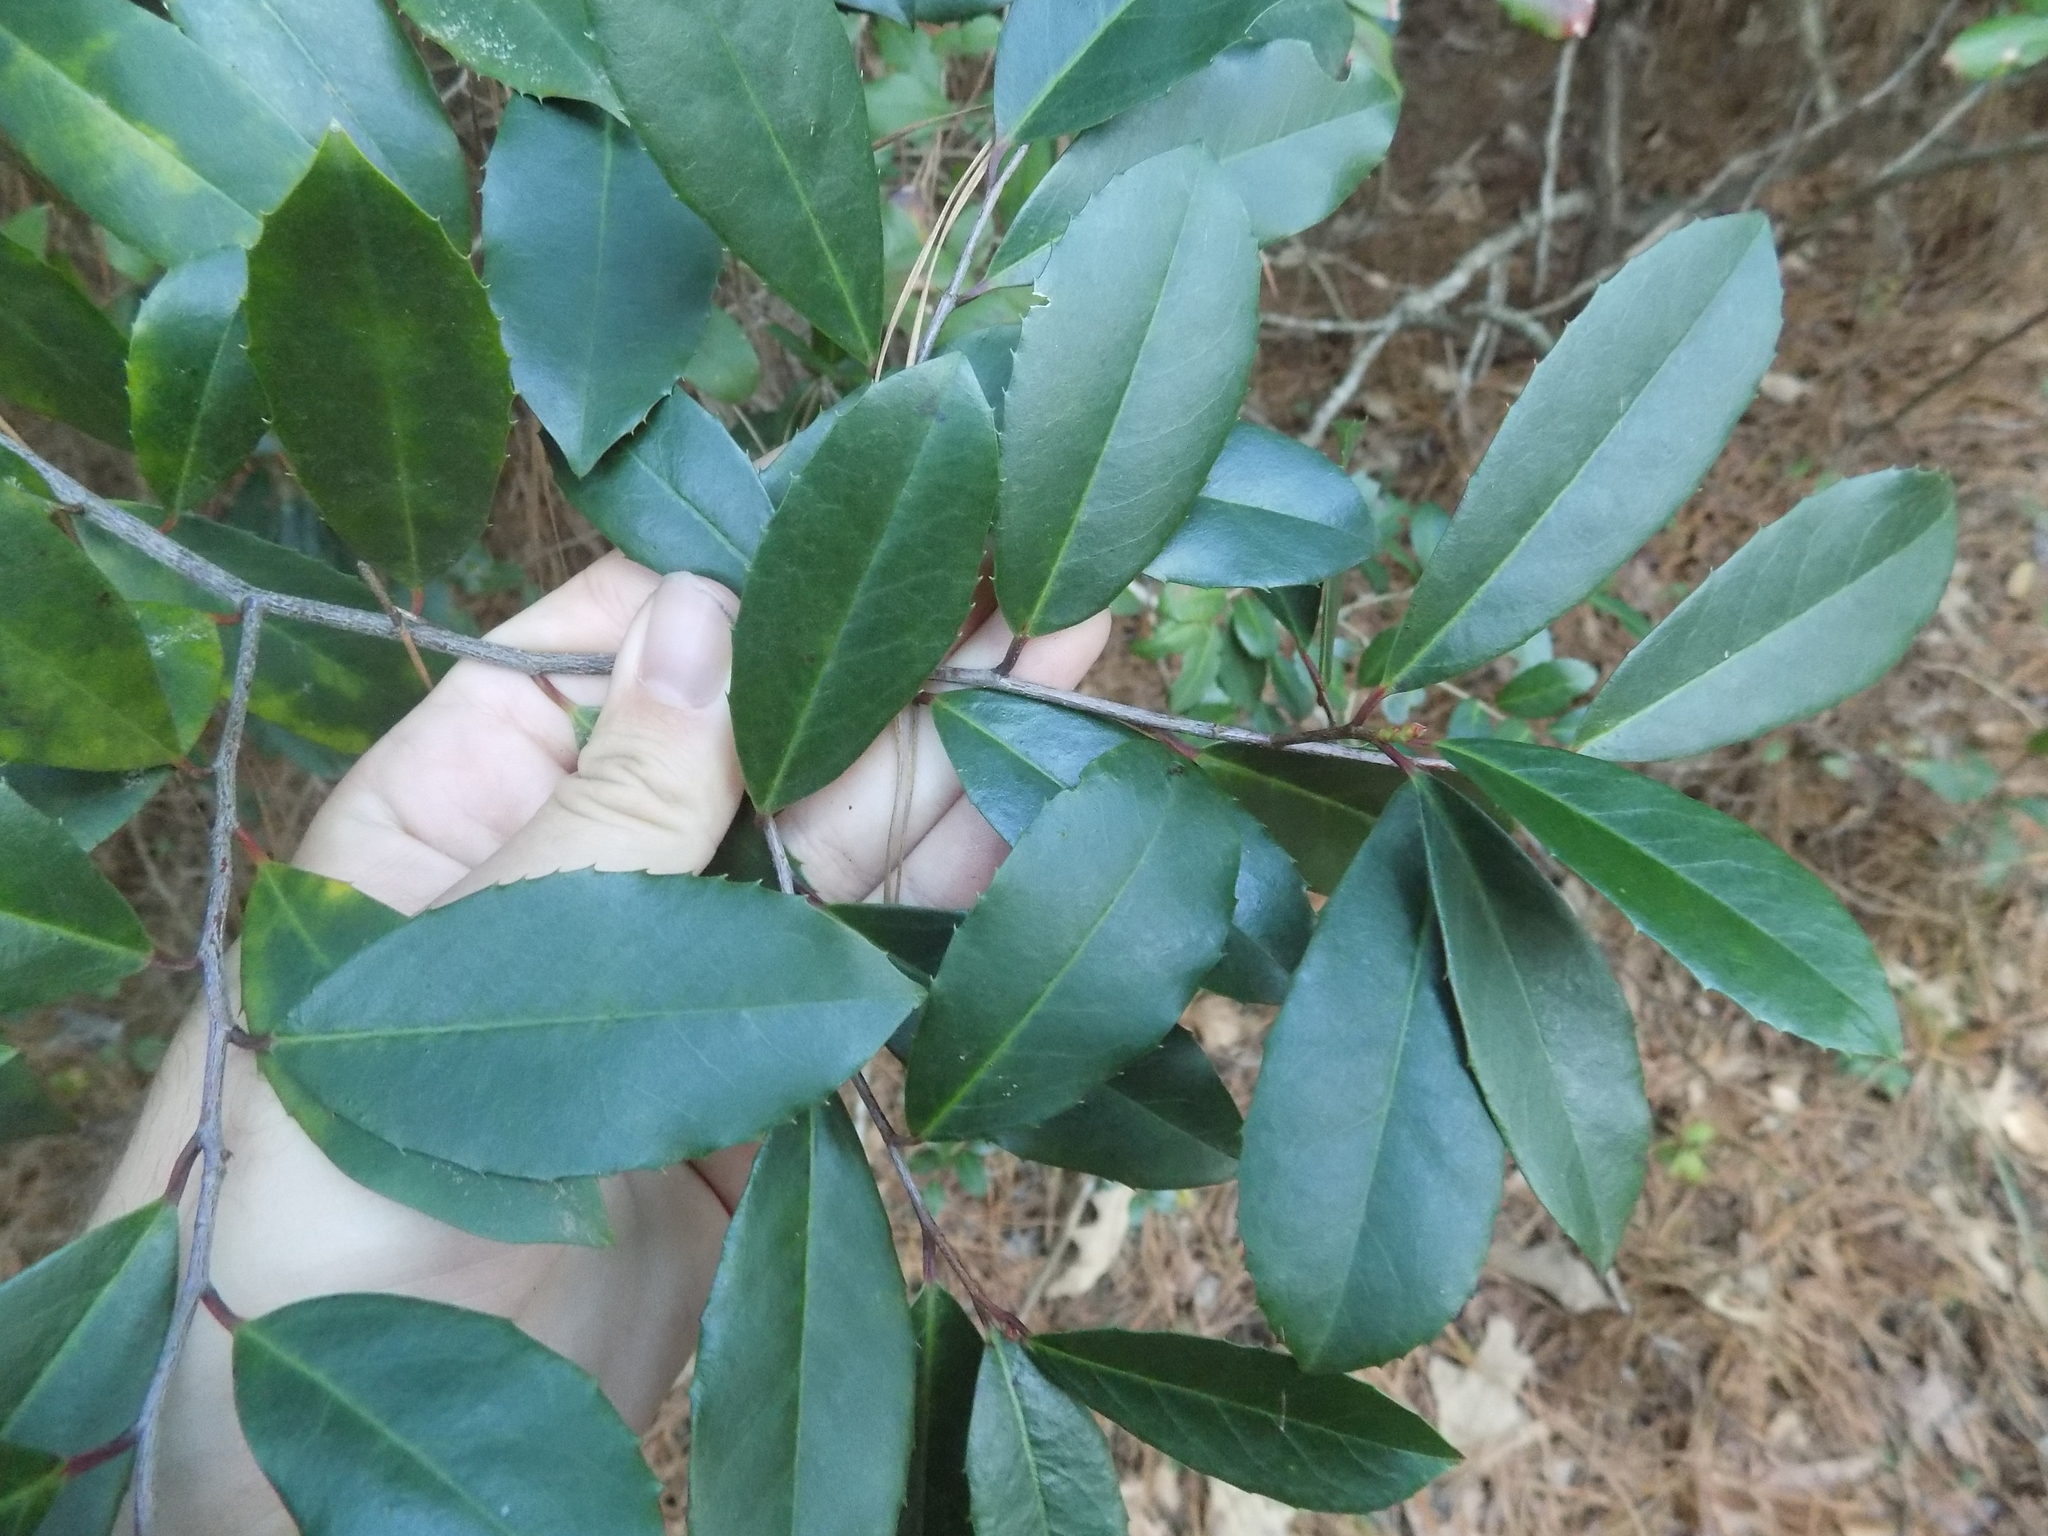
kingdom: Plantae
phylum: Tracheophyta
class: Magnoliopsida
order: Rosales
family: Rosaceae
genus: Prunus
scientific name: Prunus caroliniana
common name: Carolina laurel cherry
